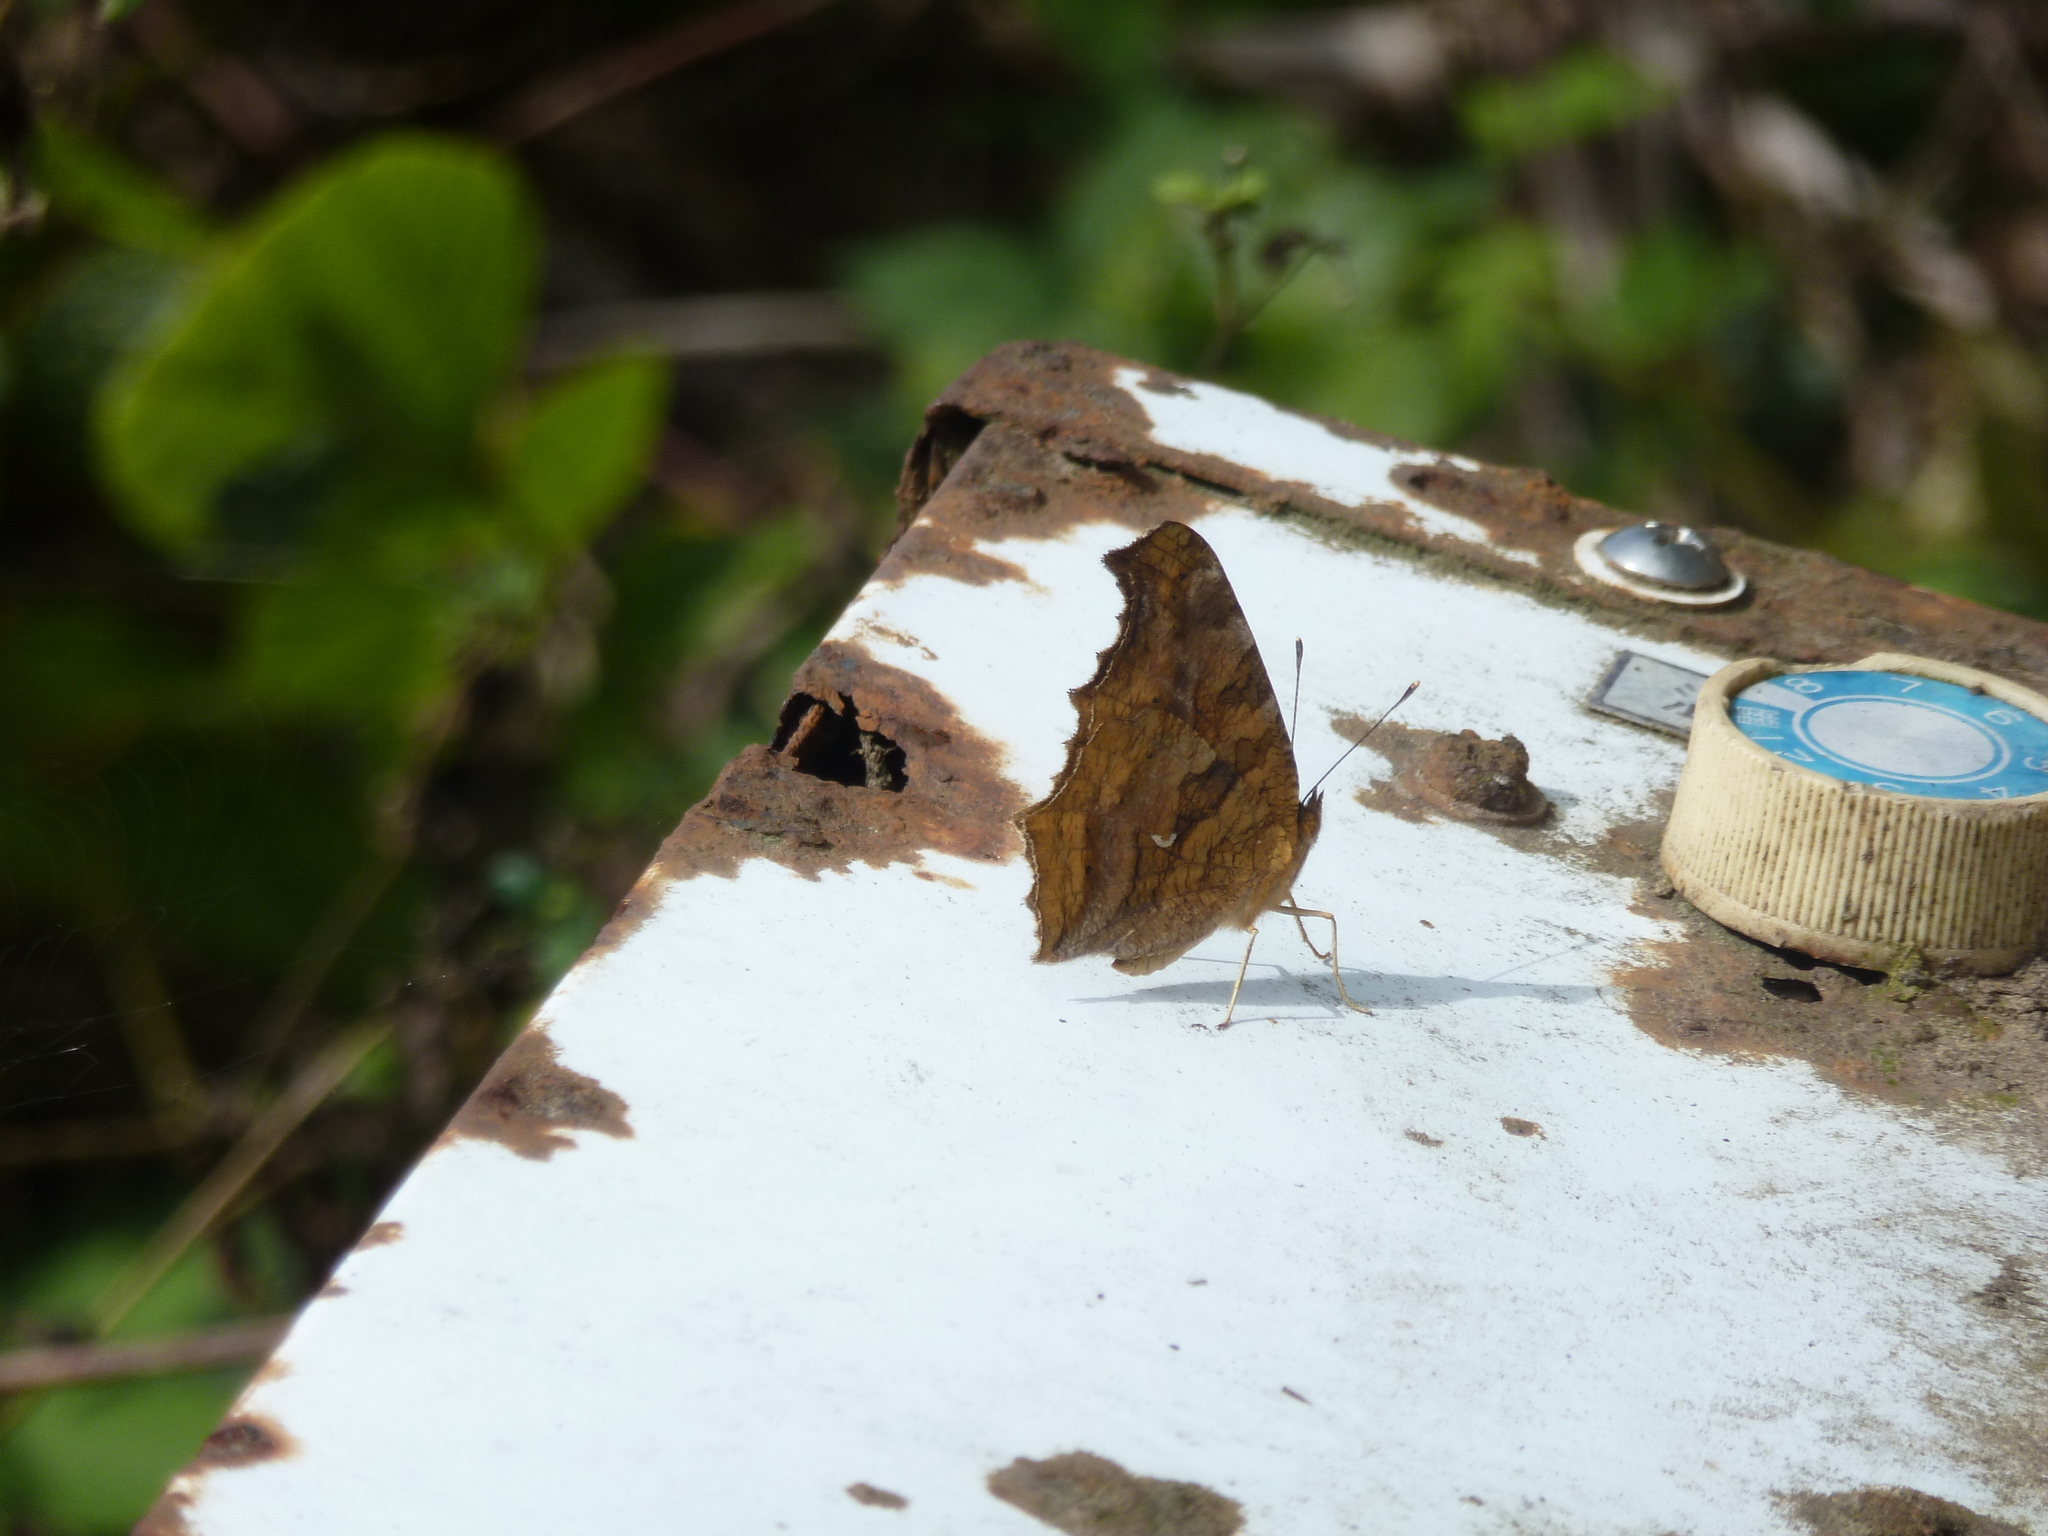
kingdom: Animalia
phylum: Arthropoda
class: Insecta
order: Lepidoptera
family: Nymphalidae
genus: Polygonia
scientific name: Polygonia c-aureum
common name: Asian comma
